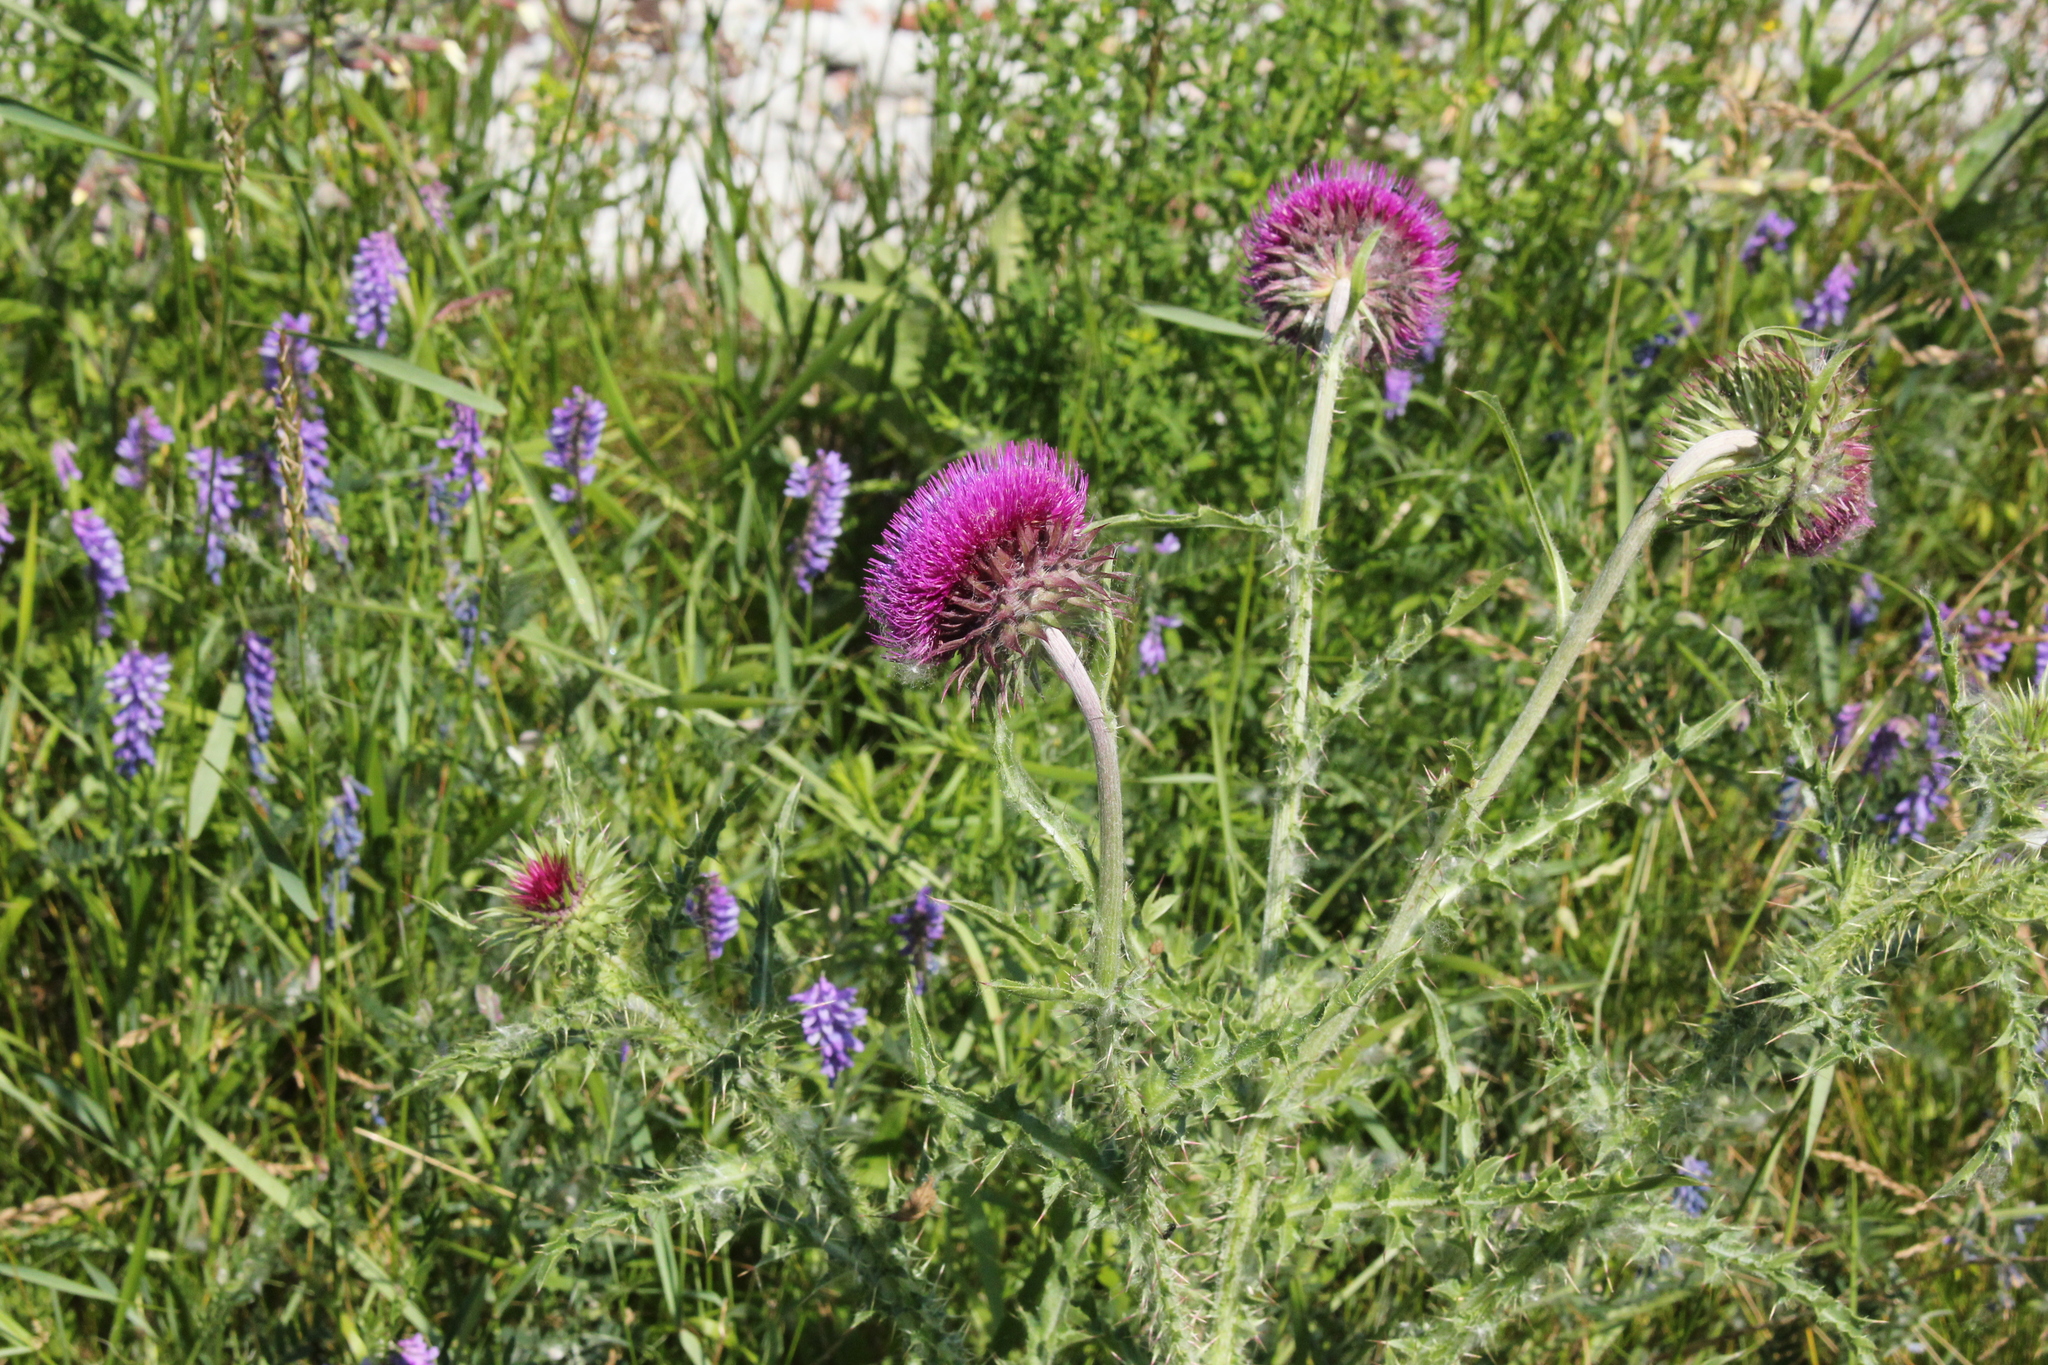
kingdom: Plantae
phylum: Tracheophyta
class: Magnoliopsida
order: Asterales
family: Asteraceae
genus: Carduus
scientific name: Carduus nutans
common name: Musk thistle
